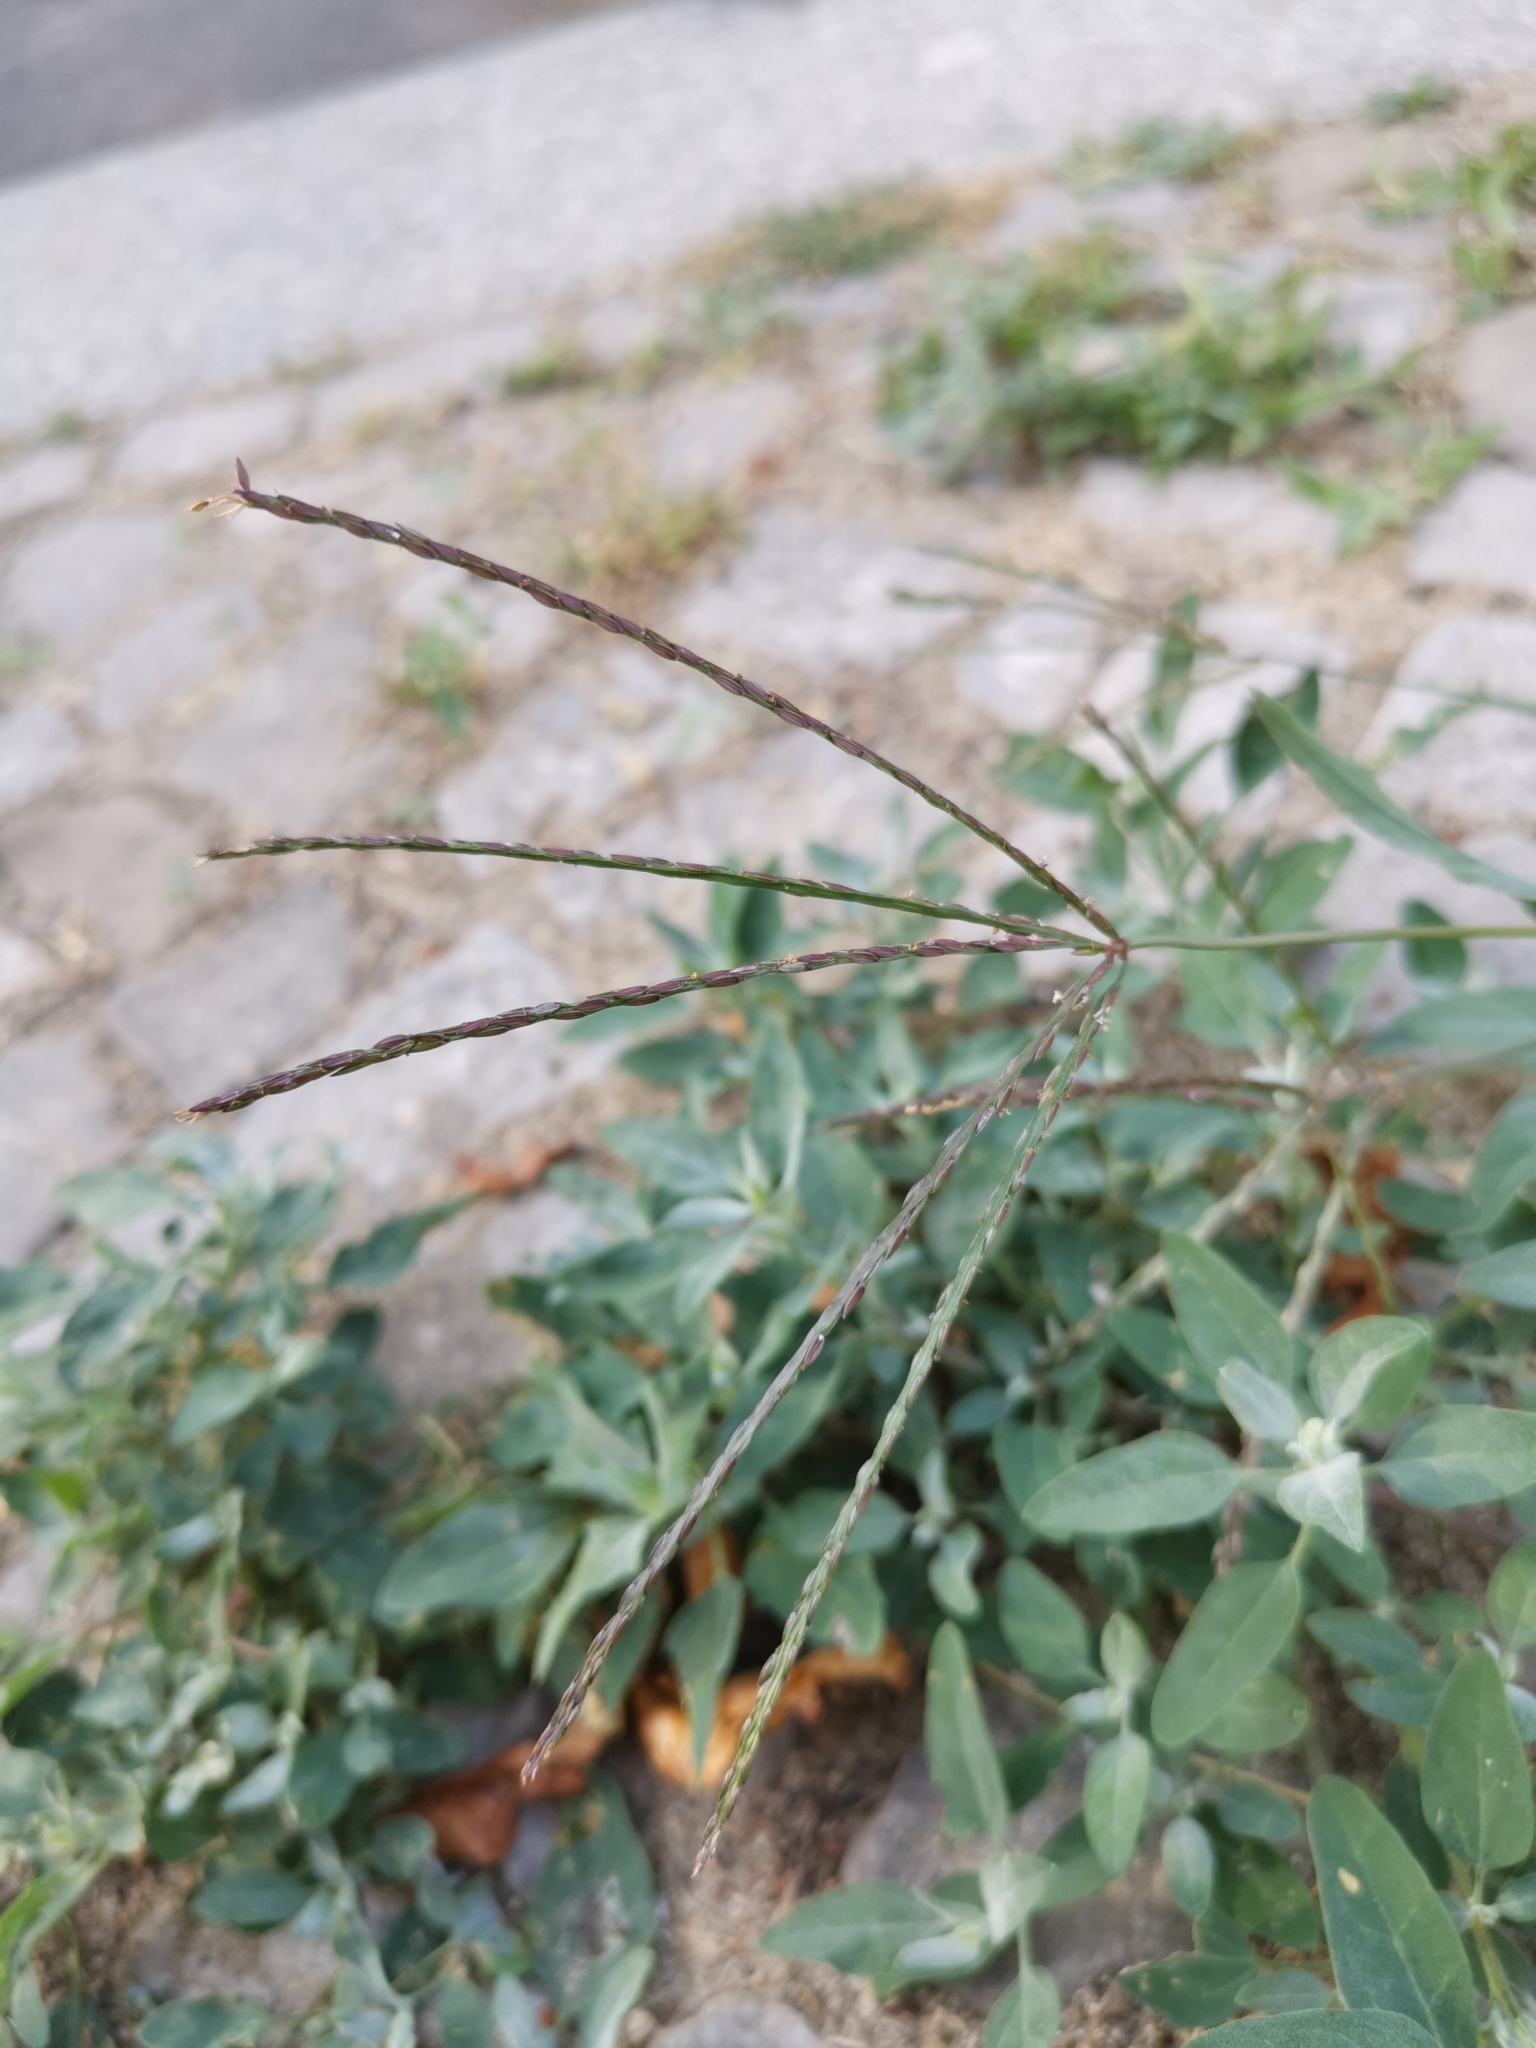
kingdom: Plantae
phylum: Tracheophyta
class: Liliopsida
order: Poales
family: Poaceae
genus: Digitaria
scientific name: Digitaria sanguinalis
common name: Hairy crabgrass
